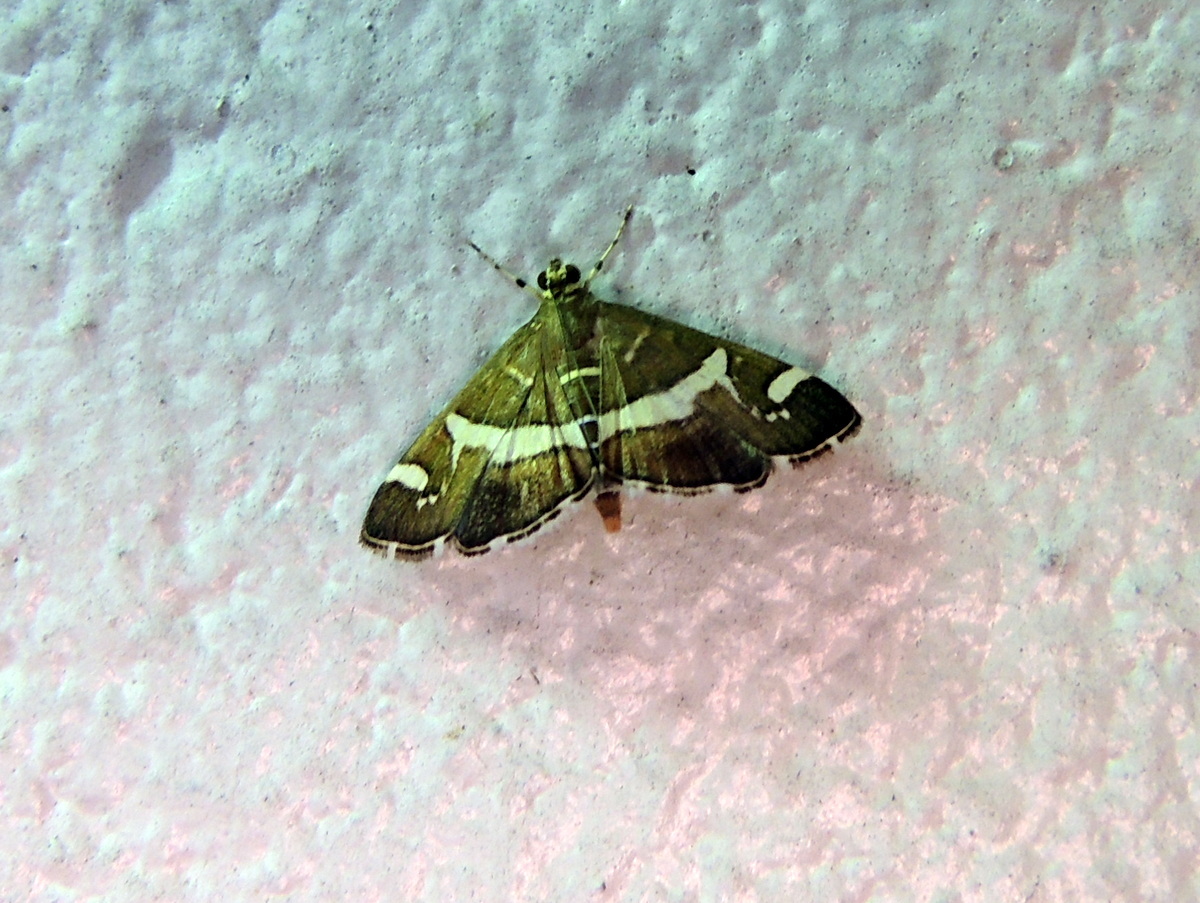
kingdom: Animalia
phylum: Arthropoda
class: Insecta
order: Lepidoptera
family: Crambidae
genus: Spoladea
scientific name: Spoladea recurvalis
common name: Beet webworm moth
